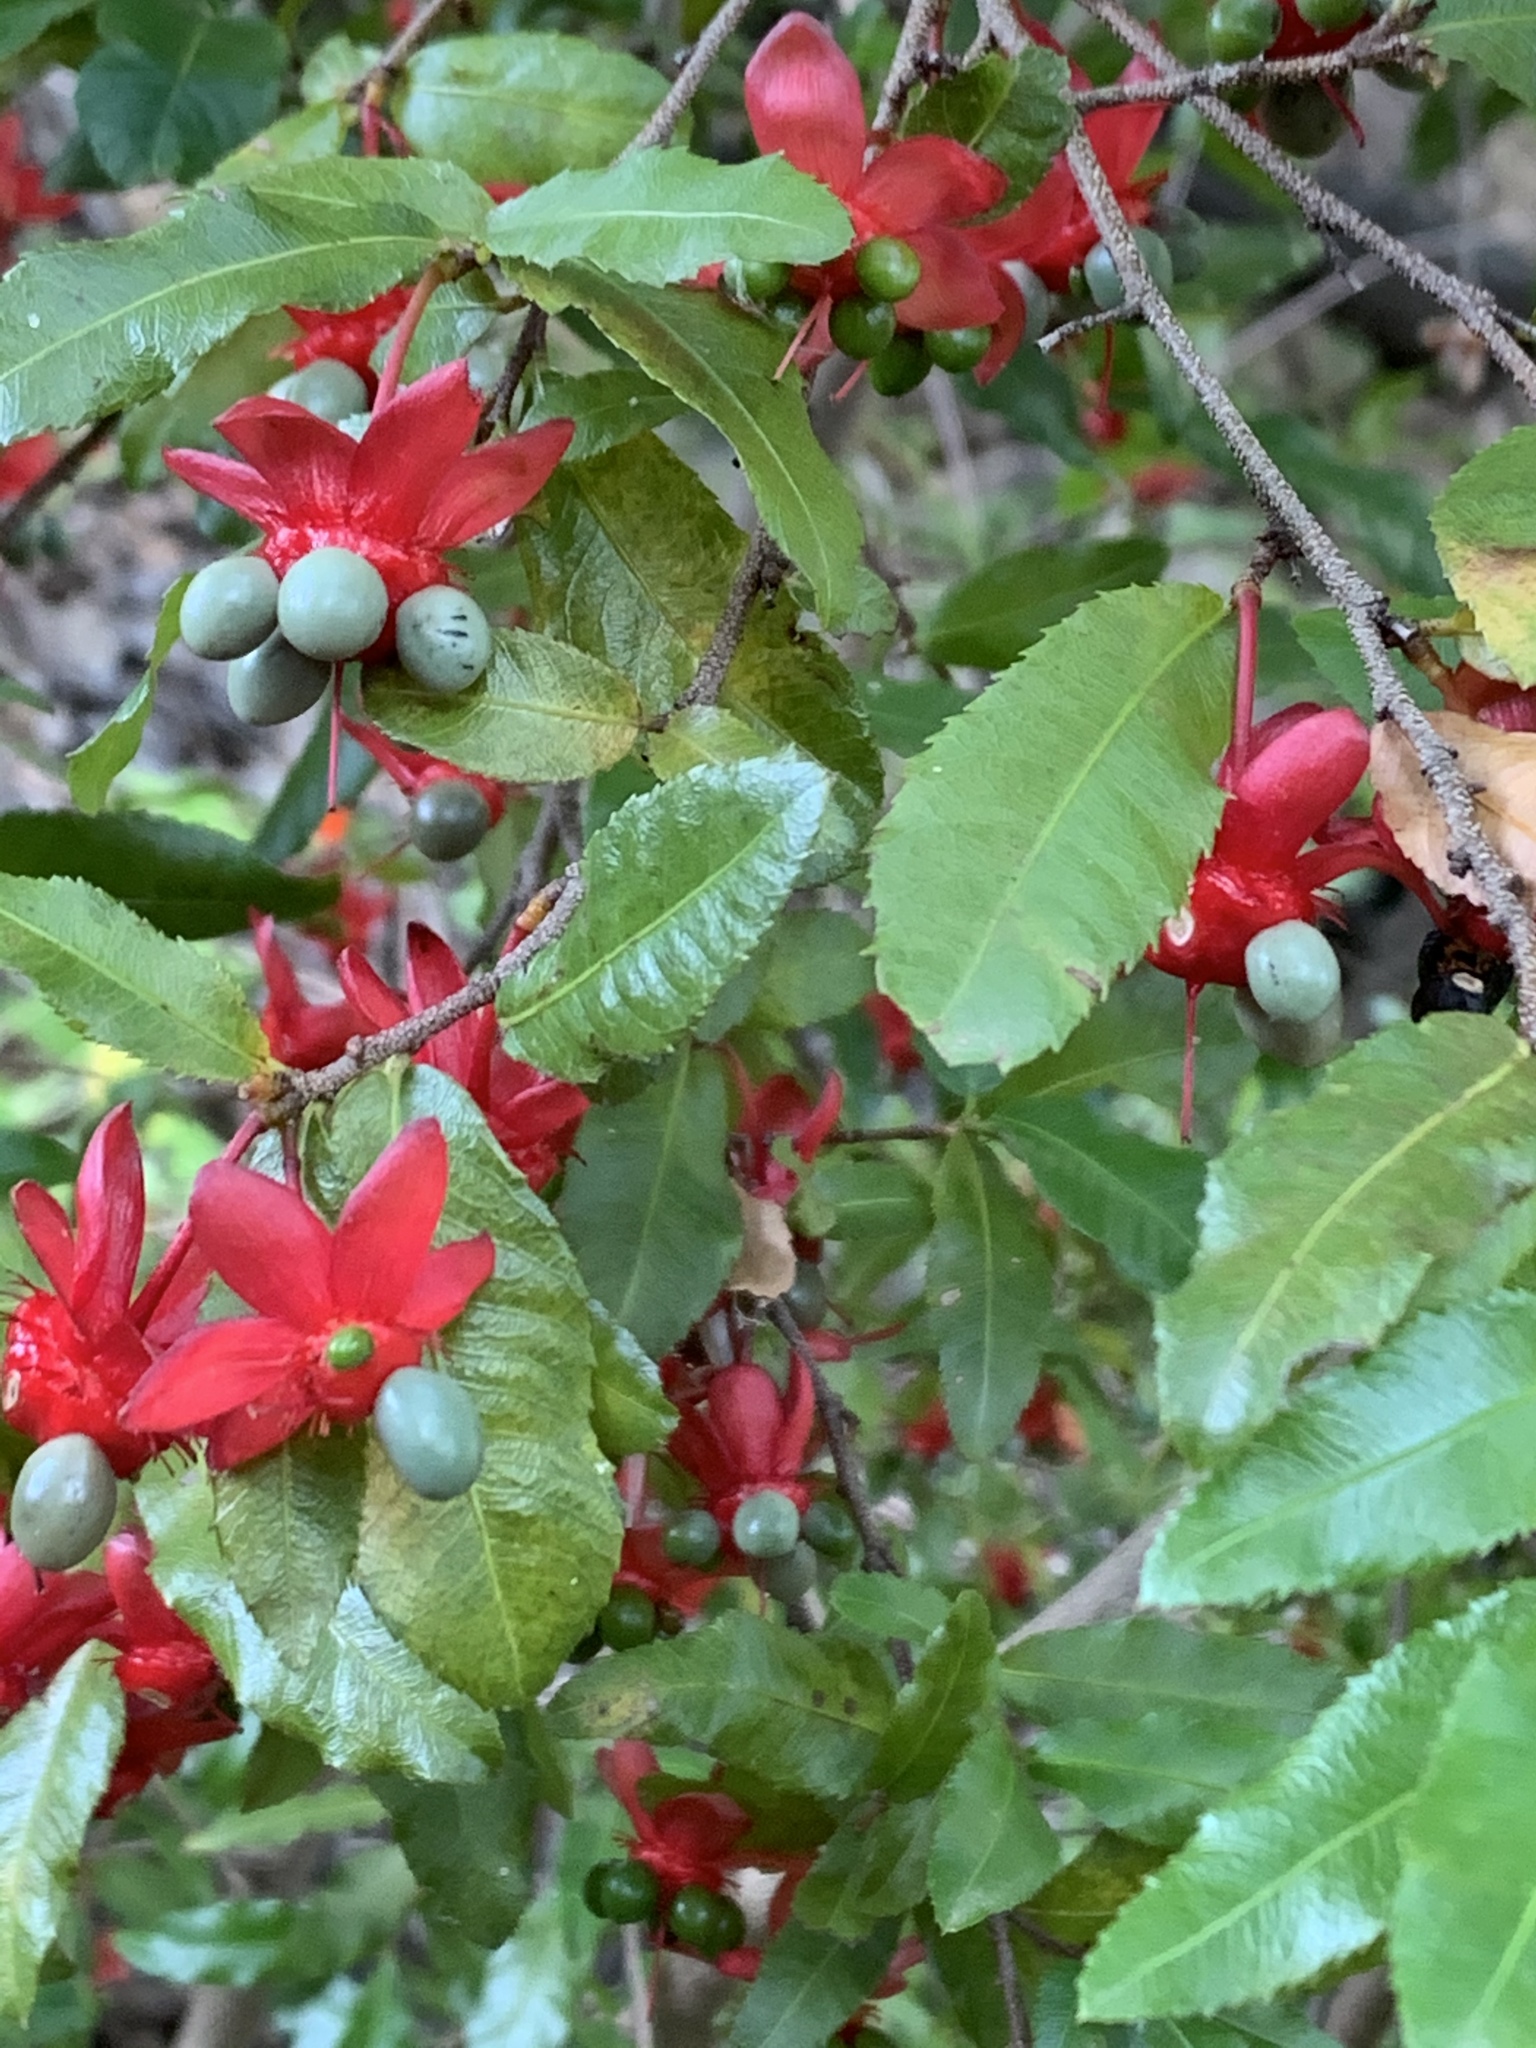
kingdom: Plantae
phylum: Tracheophyta
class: Magnoliopsida
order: Malpighiales
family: Ochnaceae
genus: Ochna
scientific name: Ochna serrulata
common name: Mickey mouse plant
